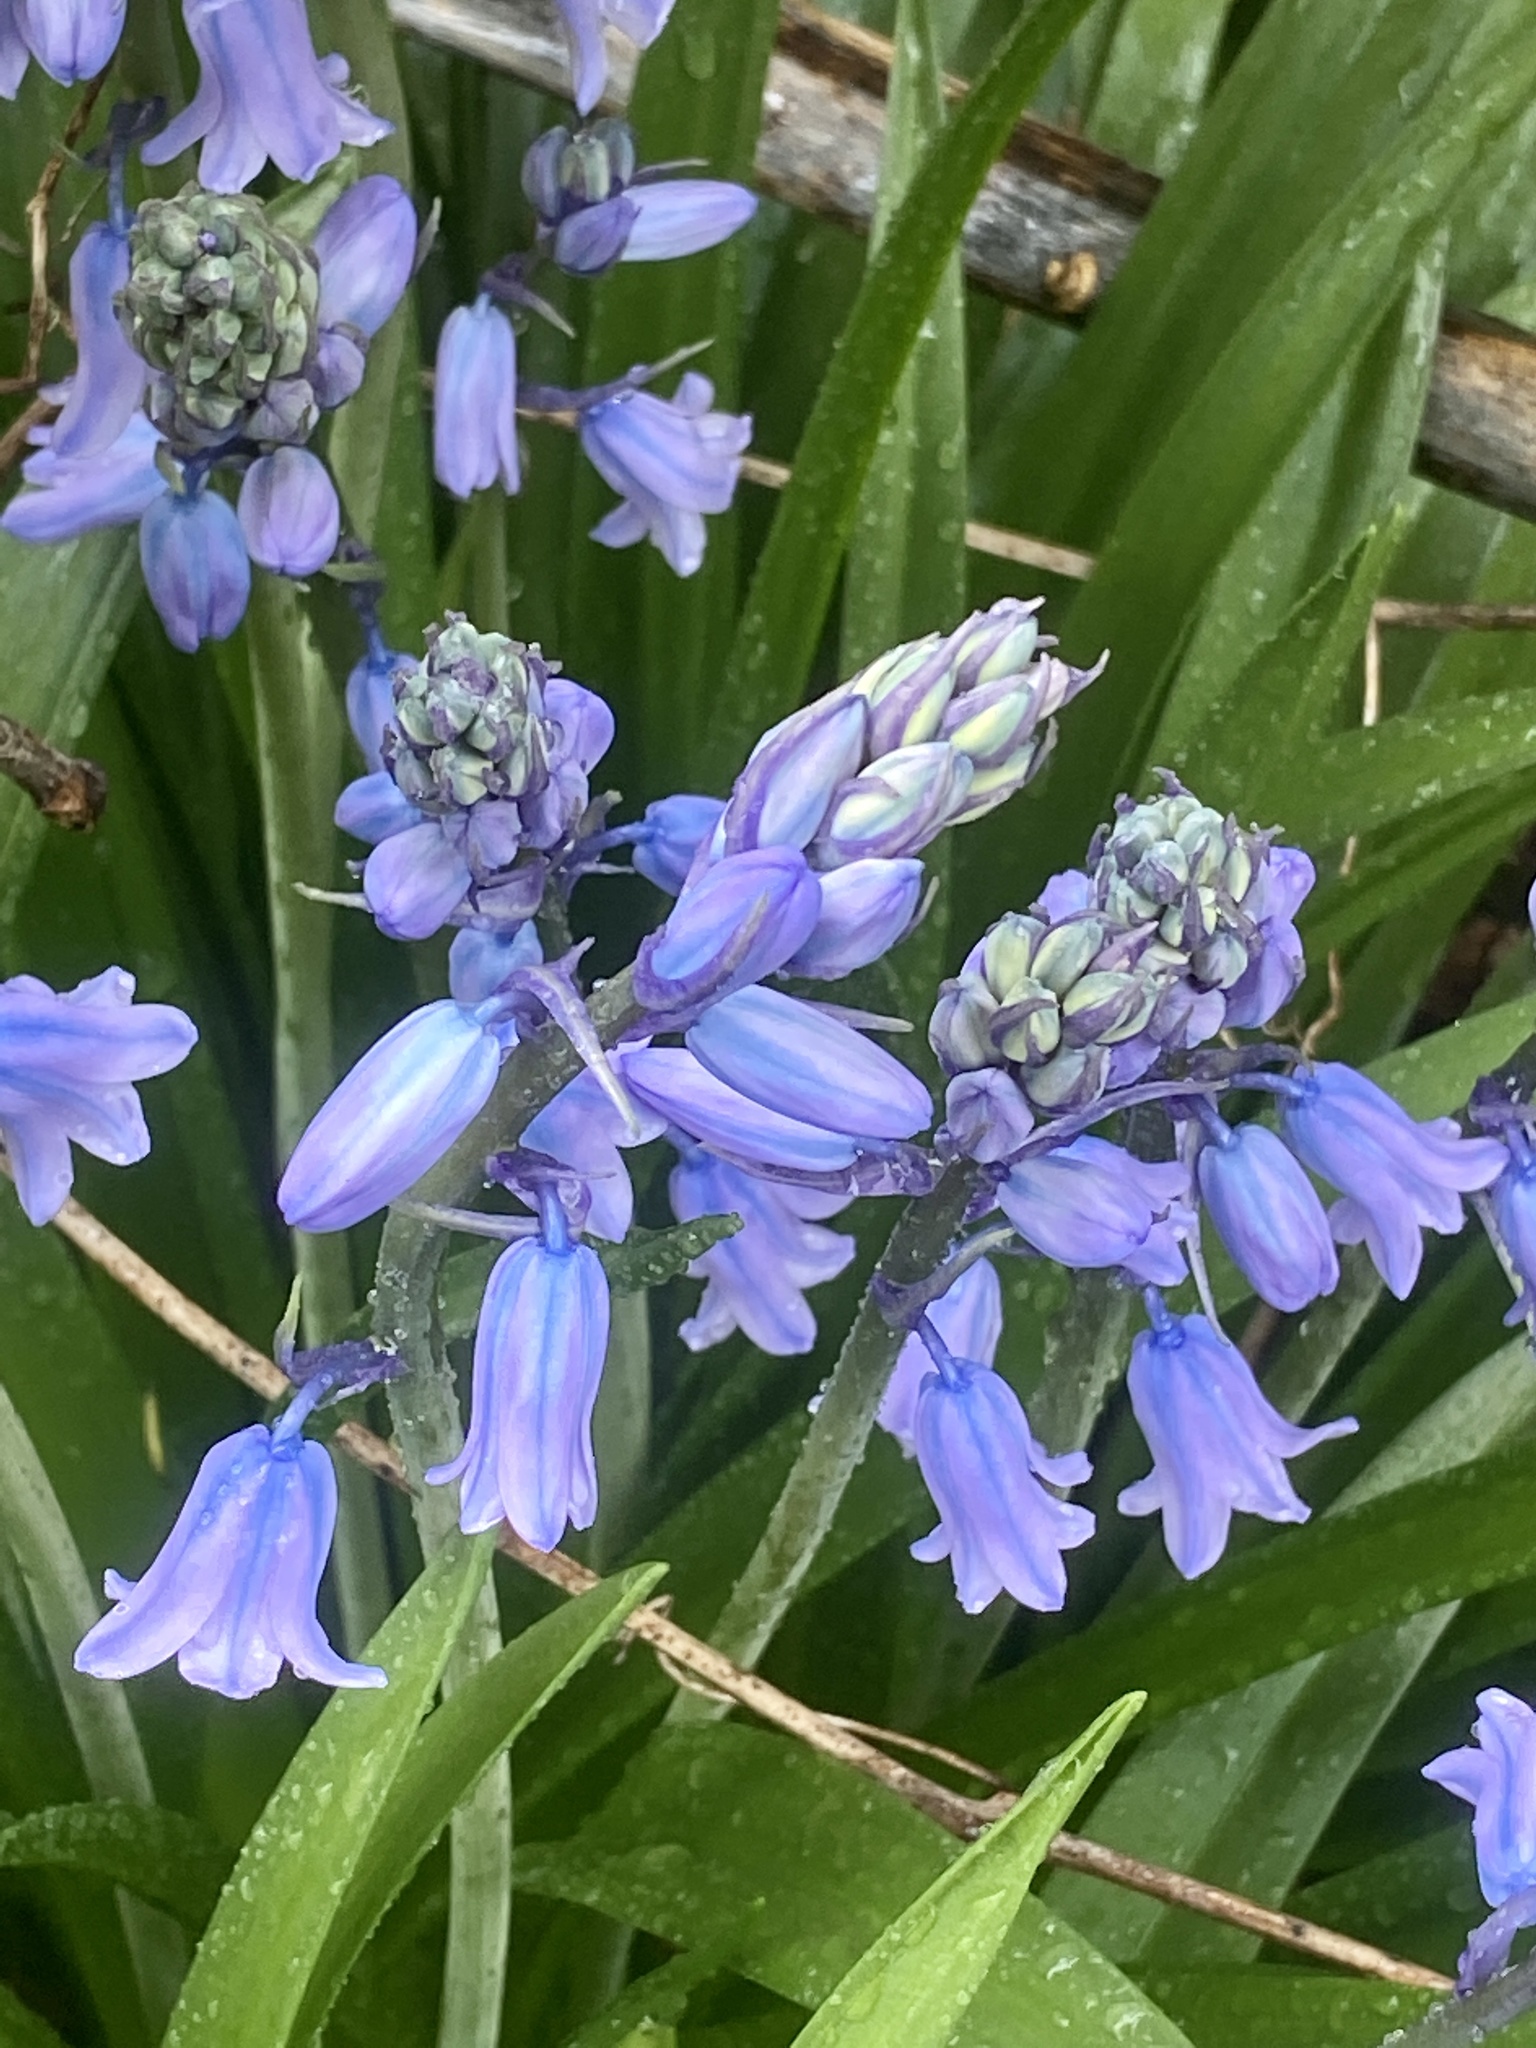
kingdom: Plantae
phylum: Tracheophyta
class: Liliopsida
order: Asparagales
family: Asparagaceae
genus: Hyacinthoides
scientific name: Hyacinthoides hispanica
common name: Spanish bluebell
